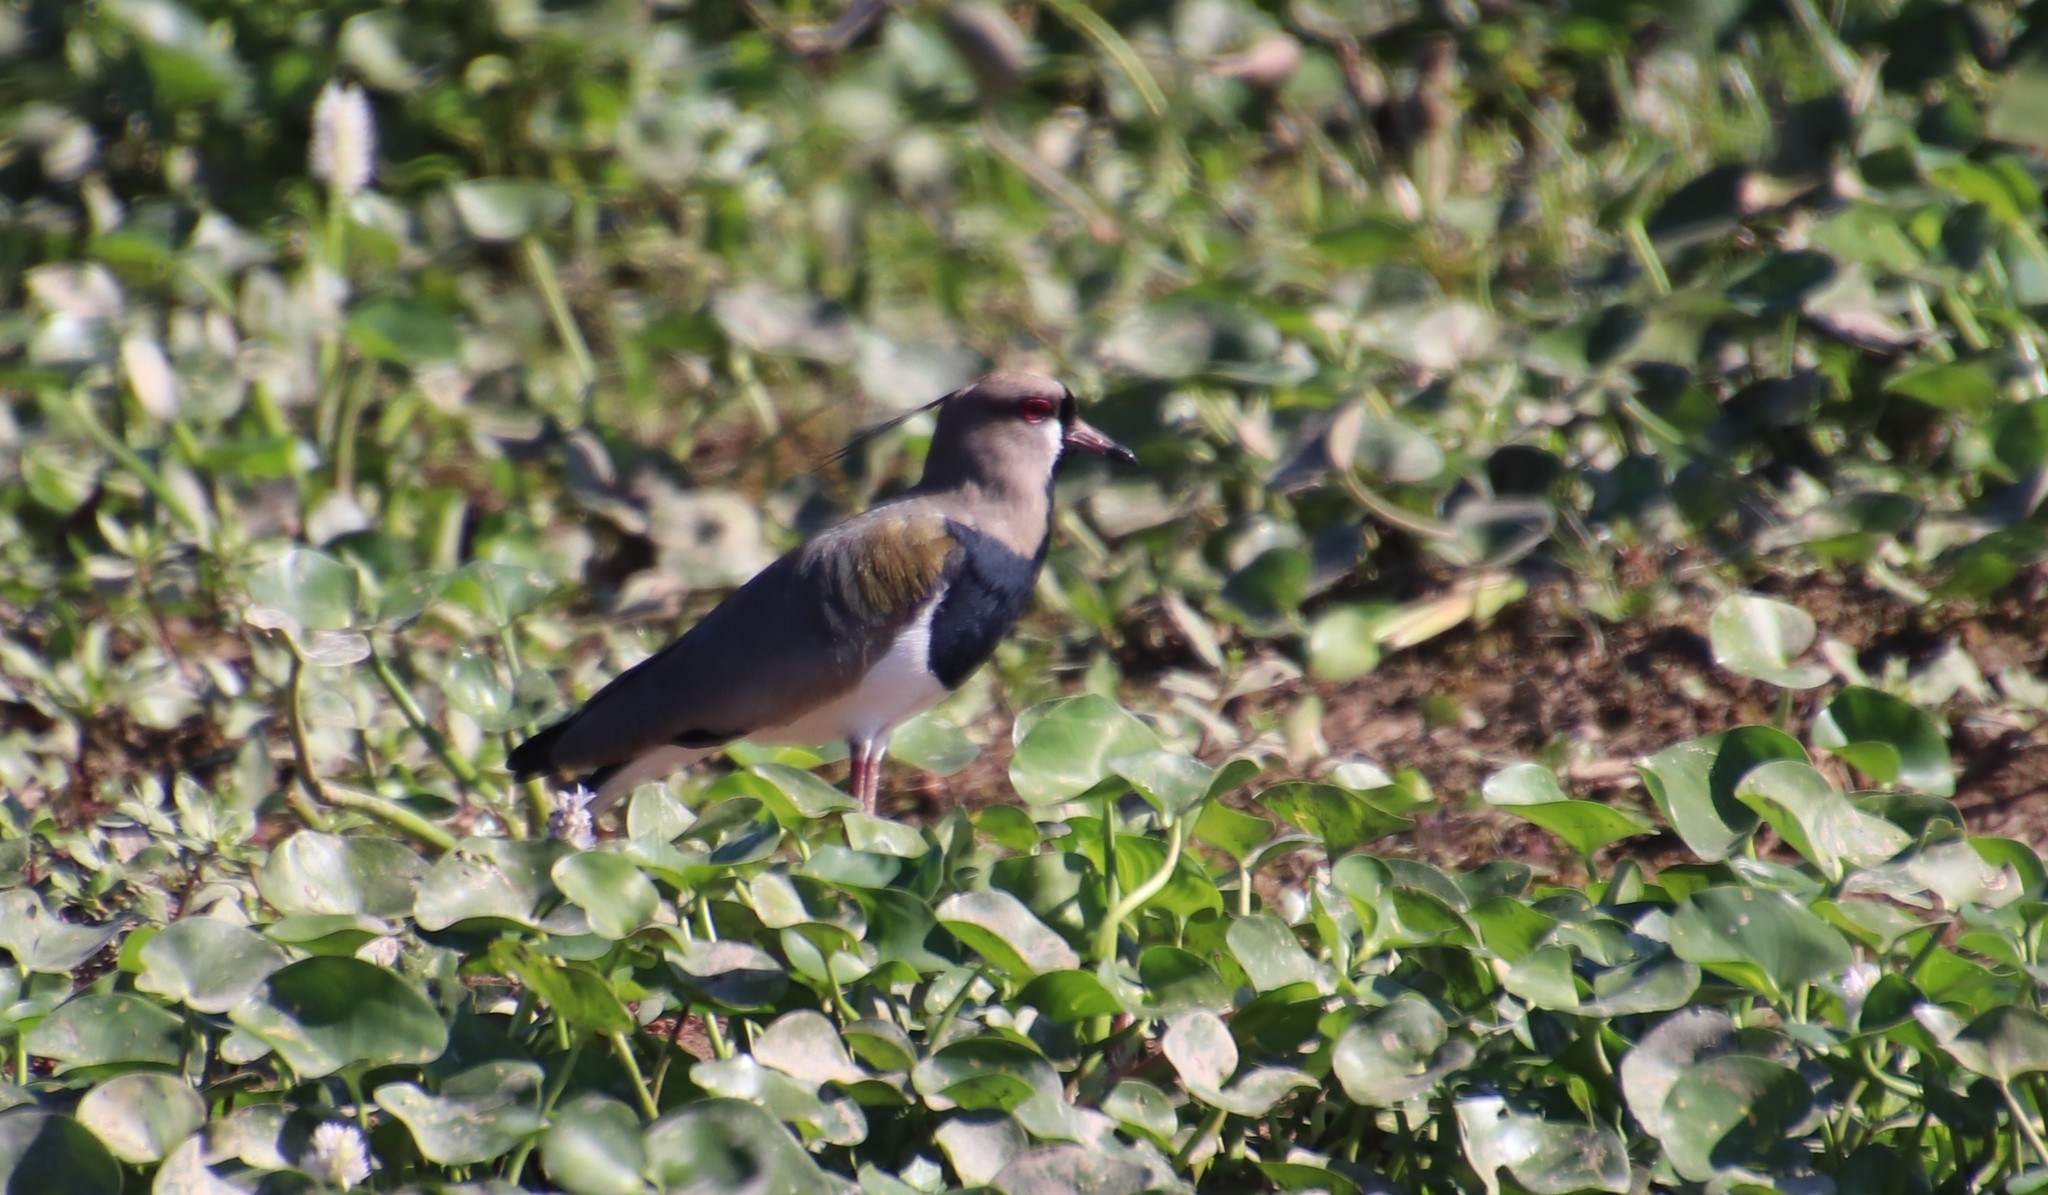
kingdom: Animalia
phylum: Chordata
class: Aves
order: Charadriiformes
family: Charadriidae
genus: Vanellus
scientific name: Vanellus chilensis
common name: Southern lapwing
